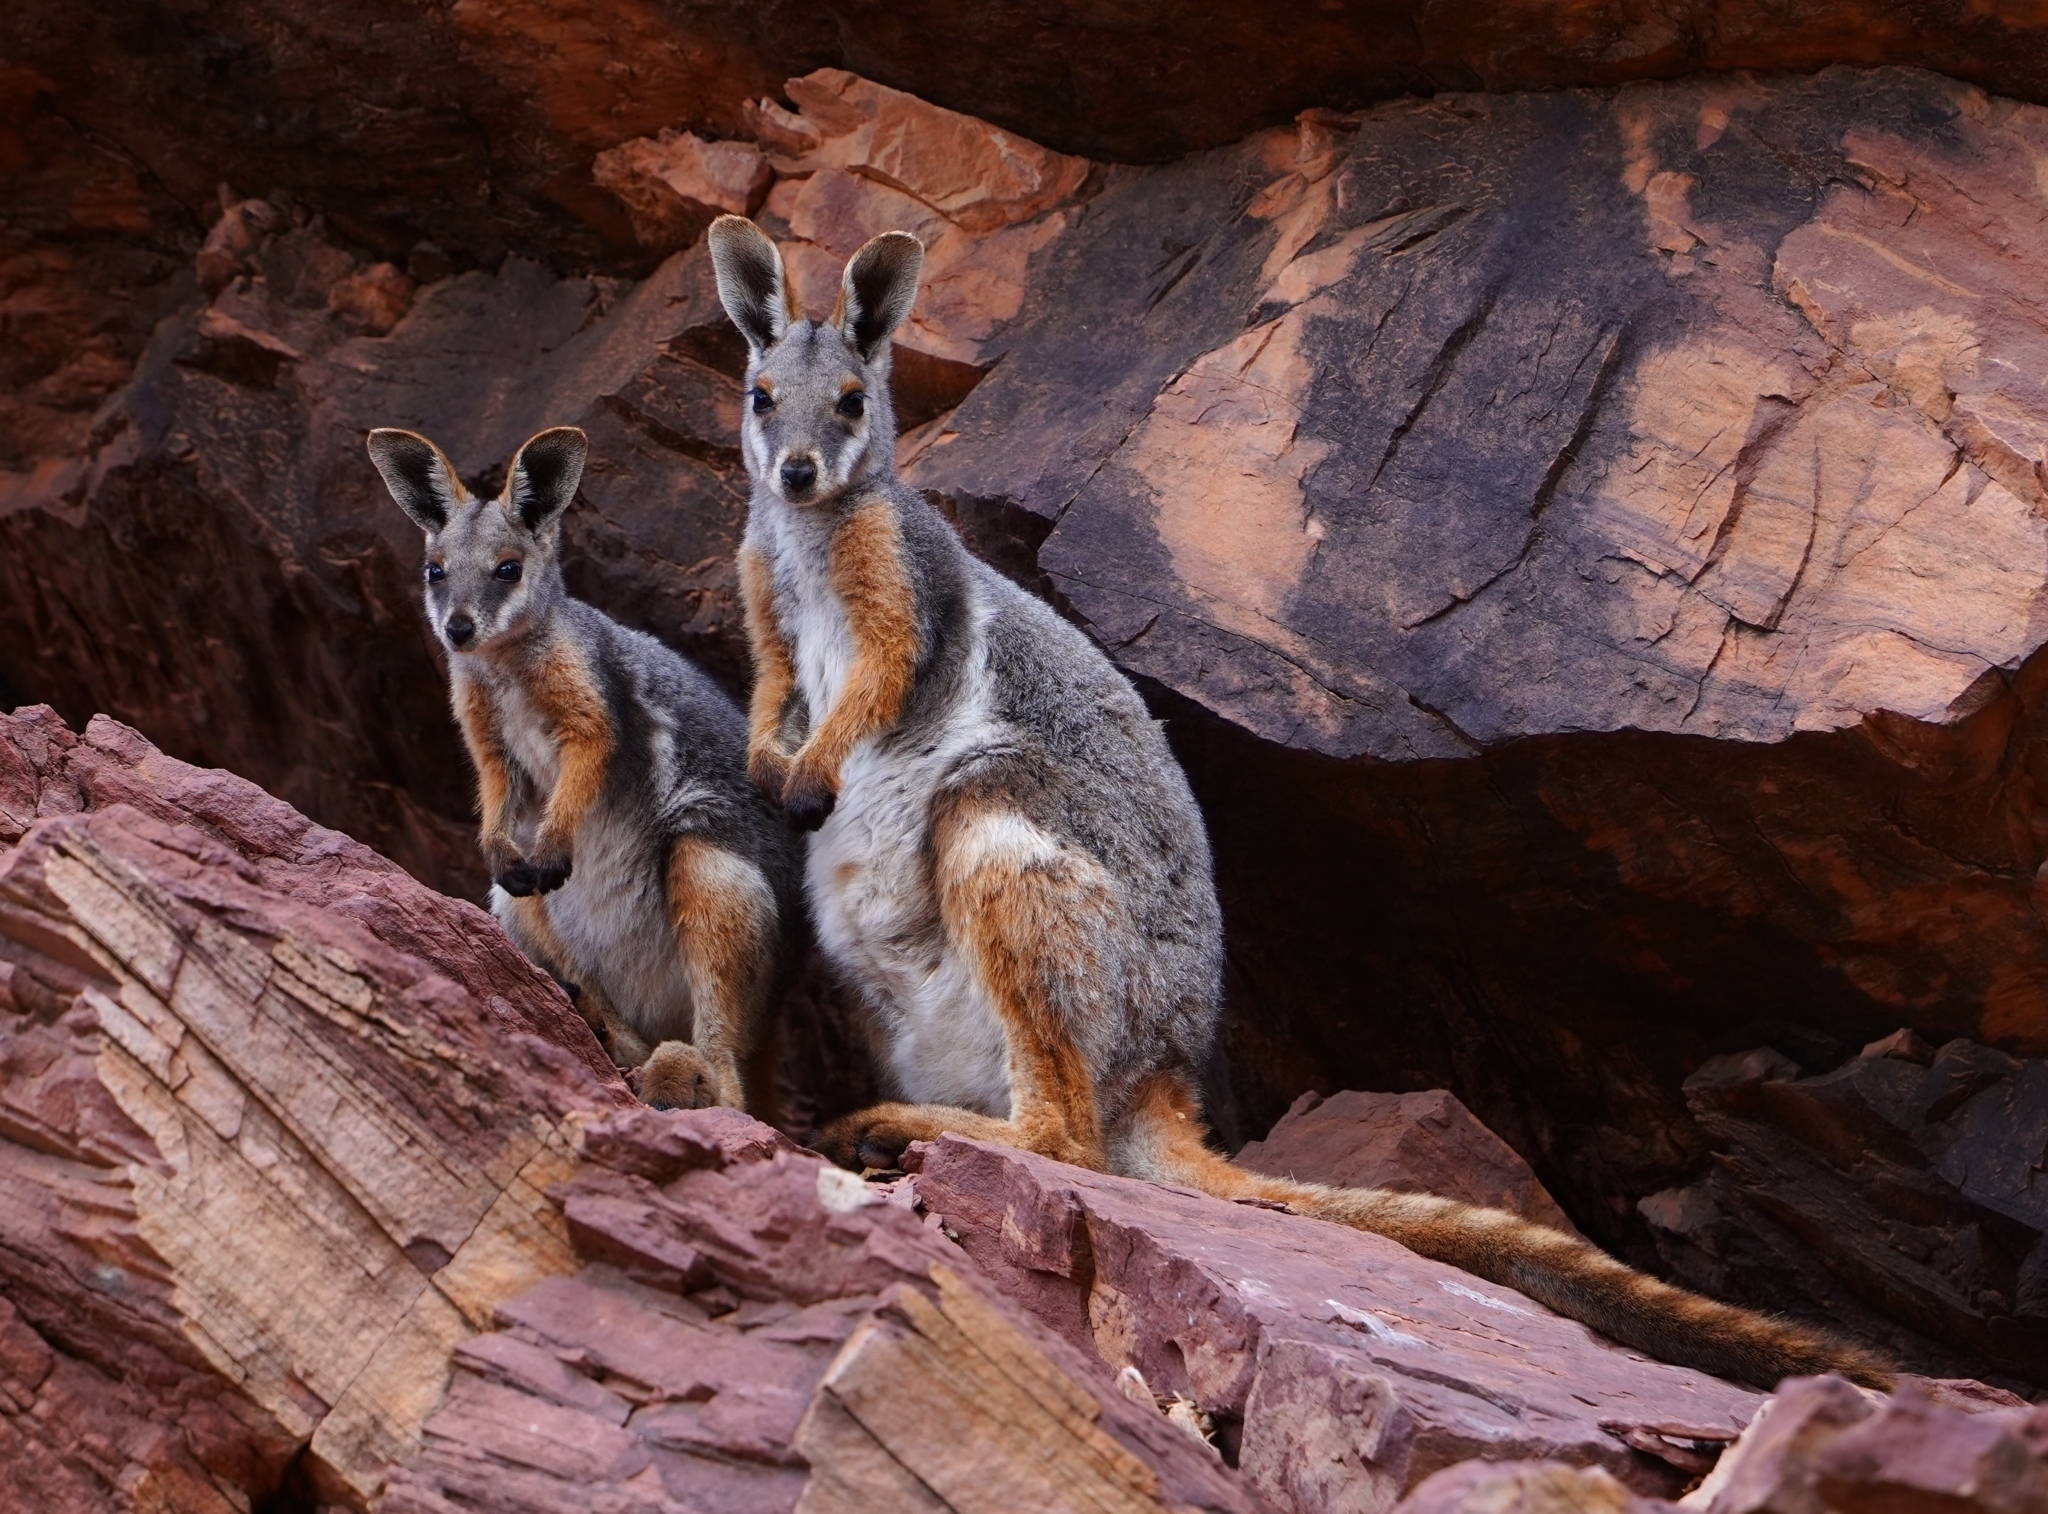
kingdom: Animalia
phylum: Chordata
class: Mammalia
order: Diprotodontia
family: Macropodidae
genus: Petrogale
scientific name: Petrogale xanthopus
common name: Yellow-footed rock-wallaby
